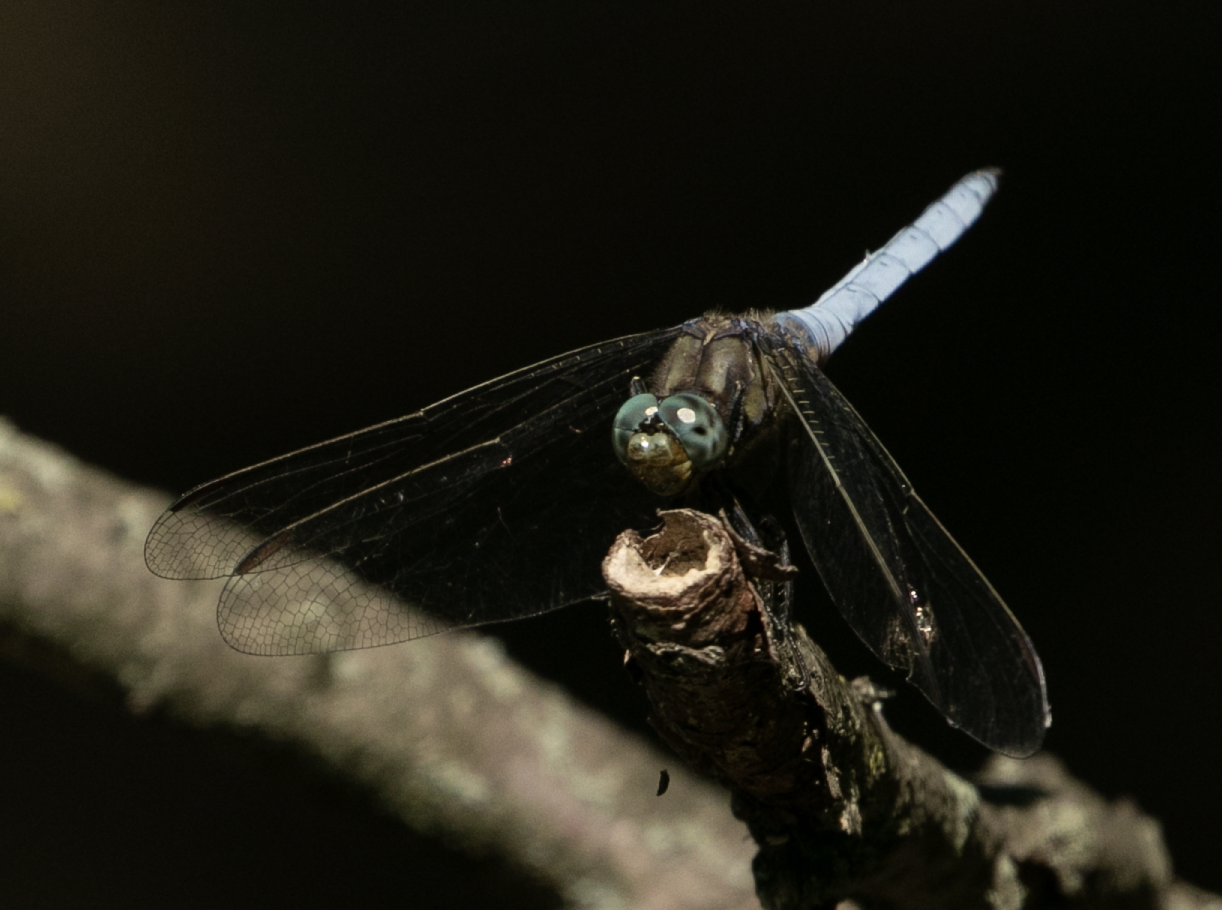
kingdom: Animalia
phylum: Arthropoda
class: Insecta
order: Odonata
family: Libellulidae
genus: Orthetrum
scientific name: Orthetrum coerulescens
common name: Keeled skimmer
